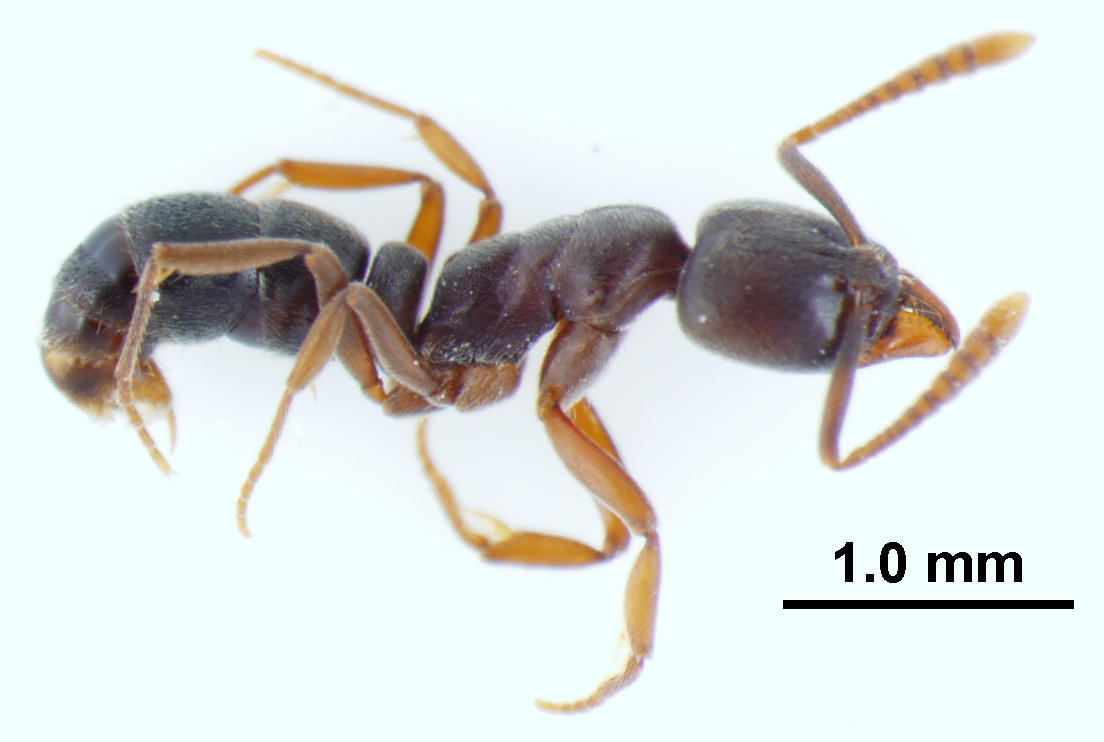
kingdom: Animalia
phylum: Arthropoda
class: Insecta
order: Hymenoptera
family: Formicidae
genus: Hypoponera
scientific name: Hypoponera opaciceps
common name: Granulate mini-ponerine ant
